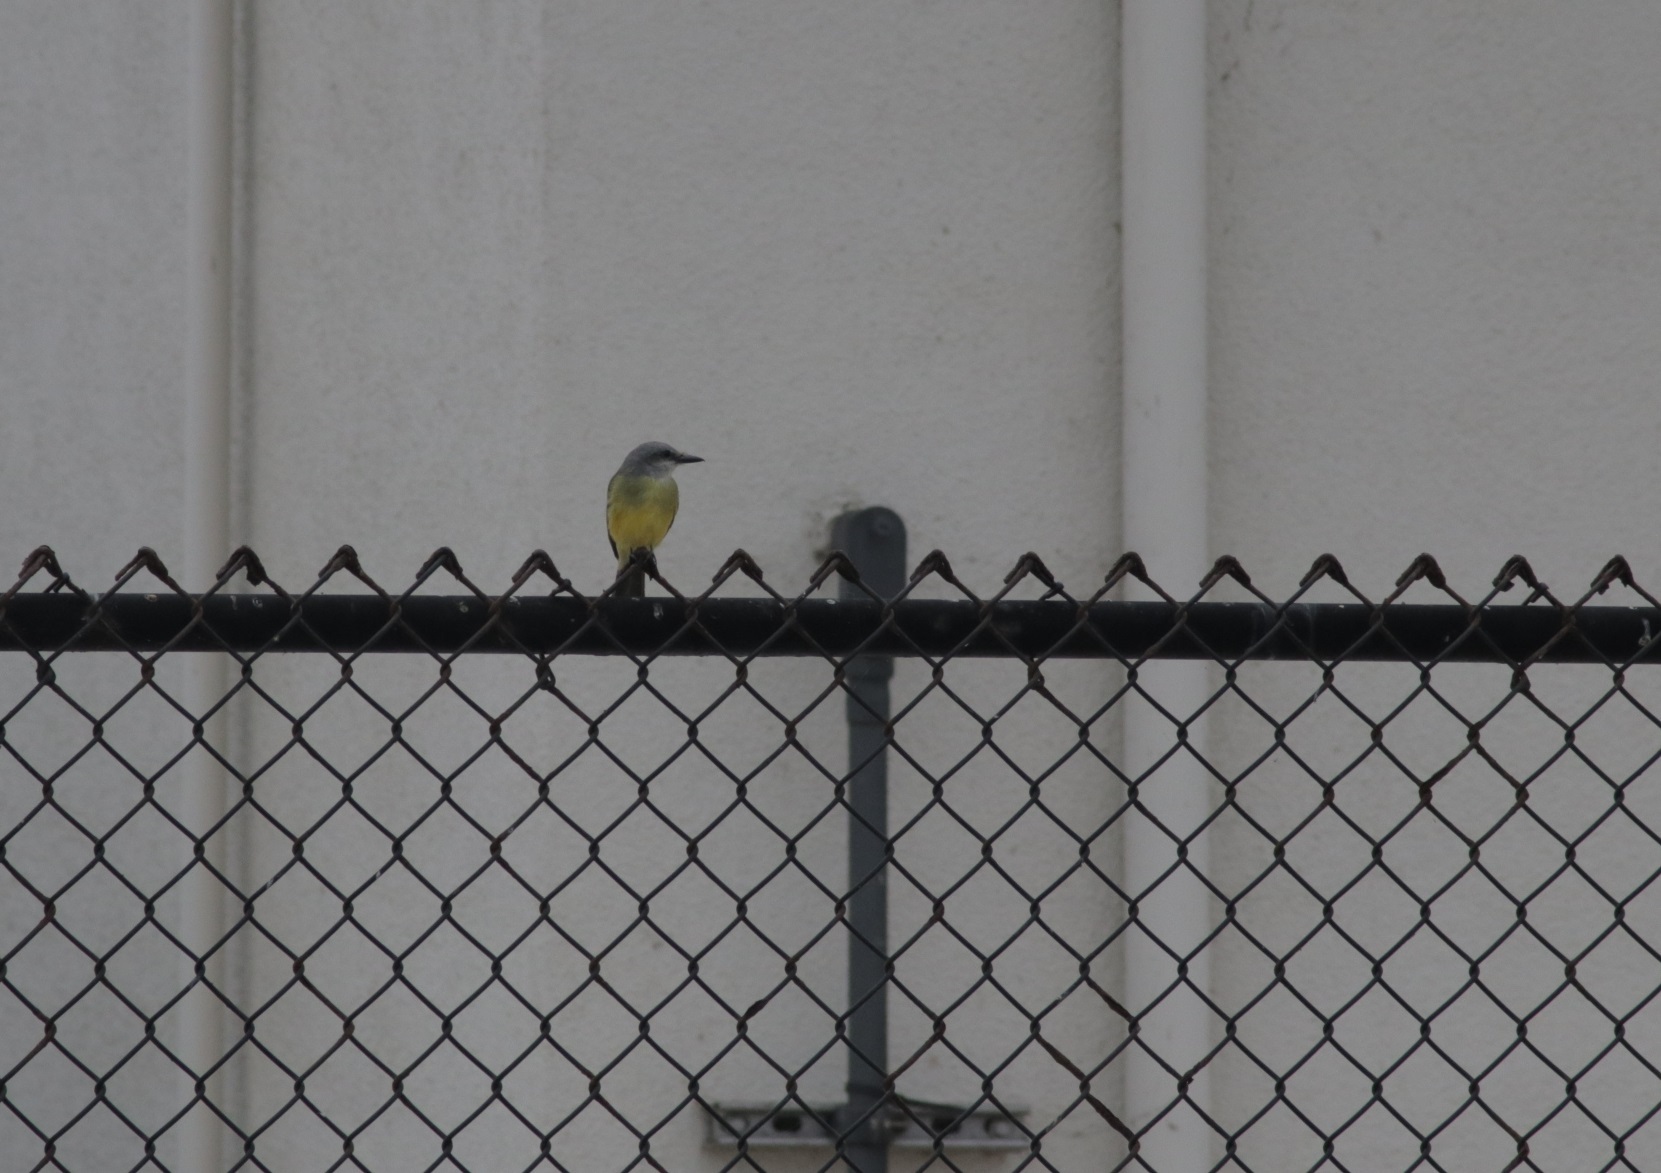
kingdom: Animalia
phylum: Chordata
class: Aves
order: Passeriformes
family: Tyrannidae
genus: Tyrannus
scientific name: Tyrannus melancholicus
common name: Tropical kingbird
